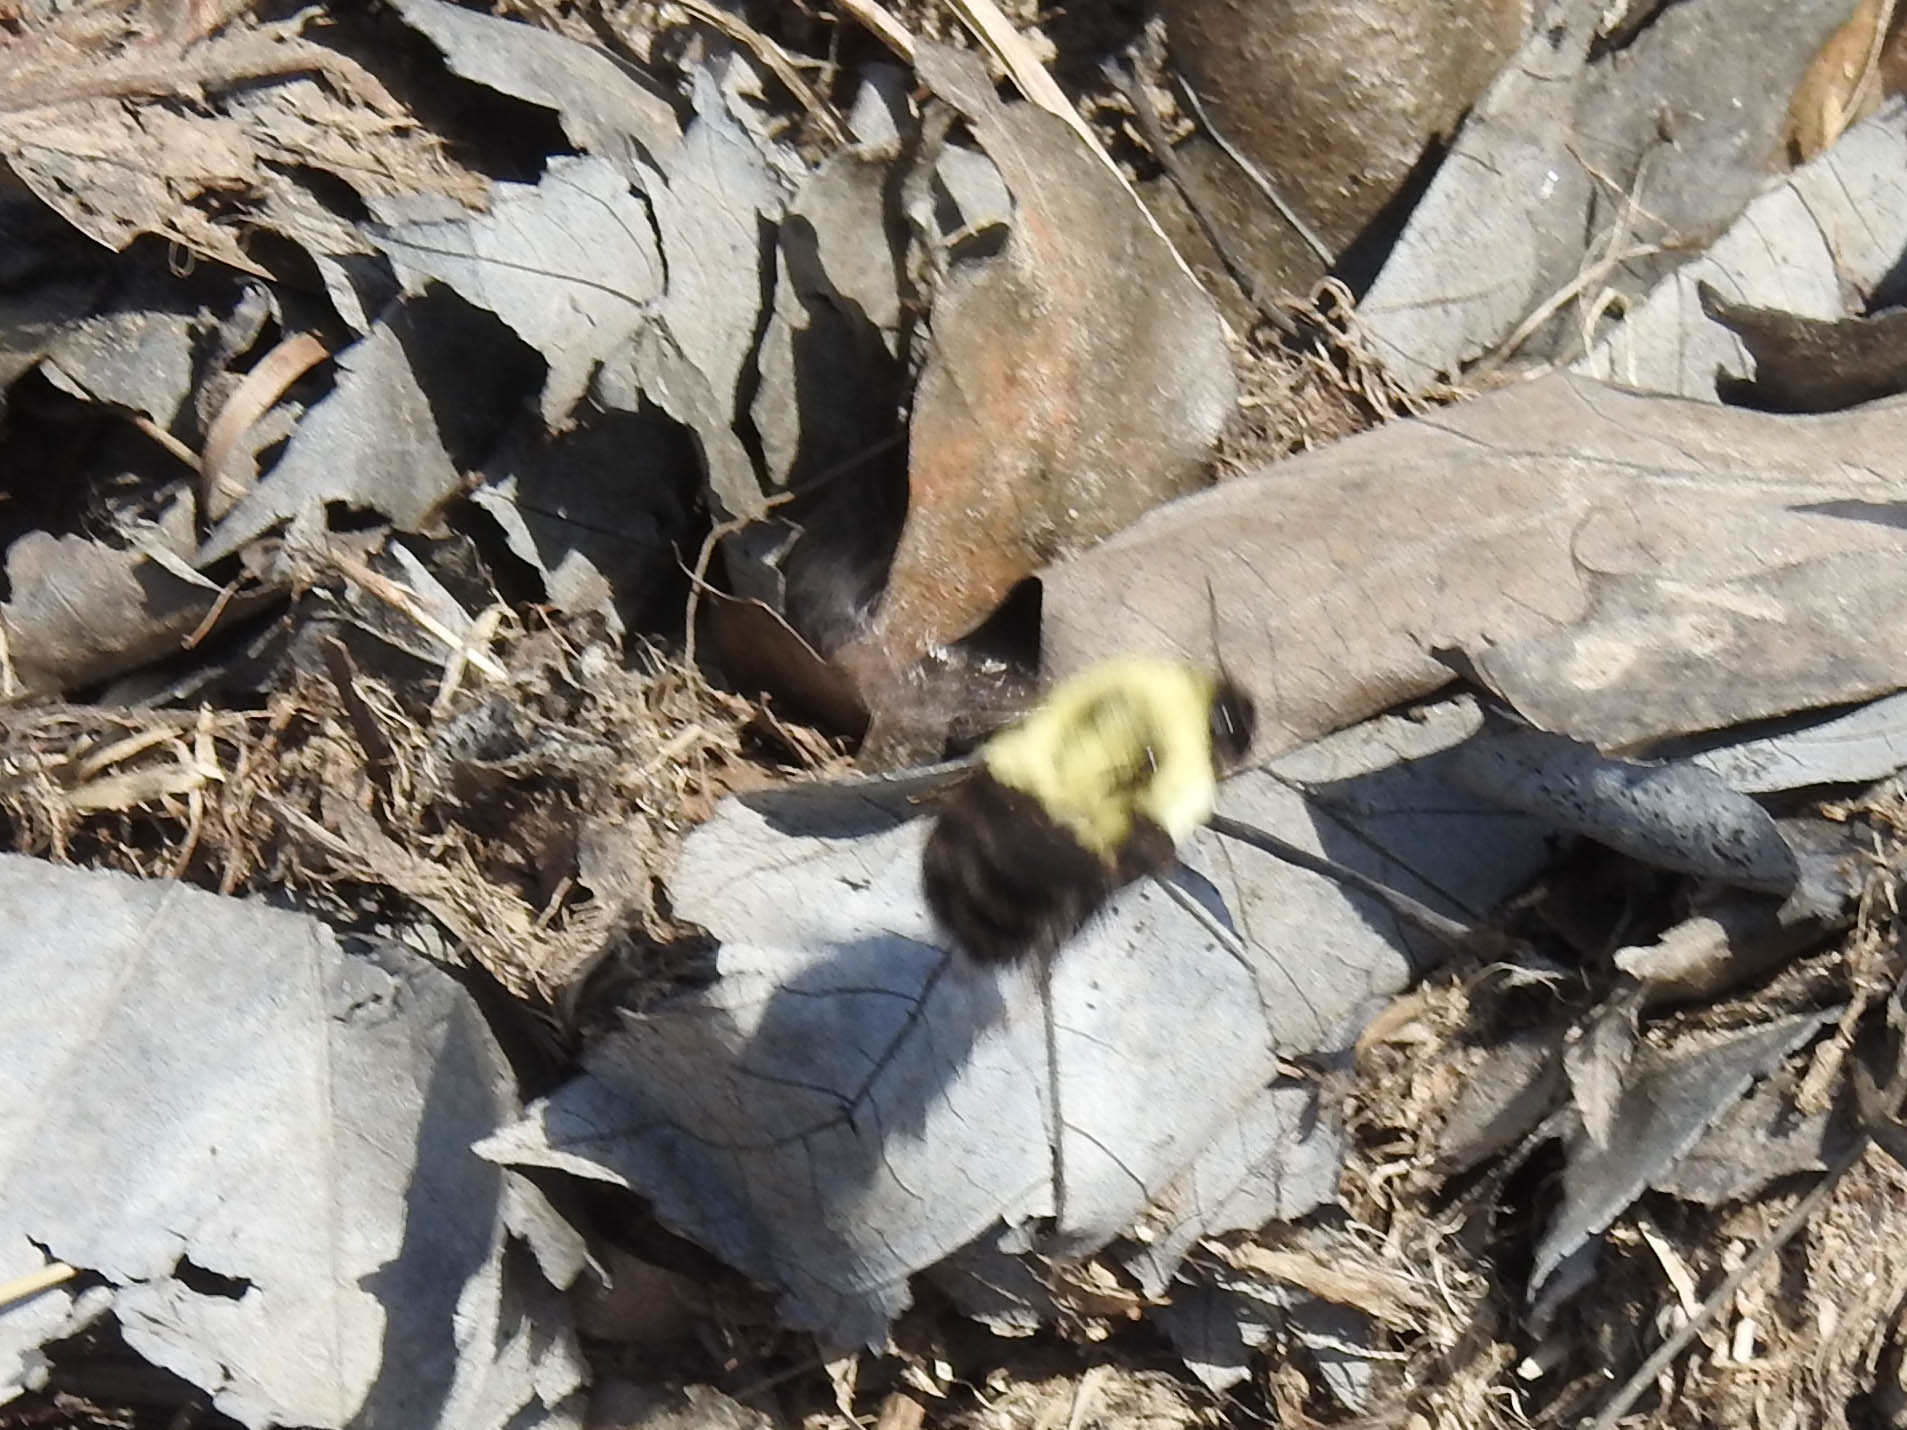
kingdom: Animalia
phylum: Arthropoda
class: Insecta
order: Hymenoptera
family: Apidae
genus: Bombus
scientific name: Bombus impatiens
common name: Common eastern bumble bee
